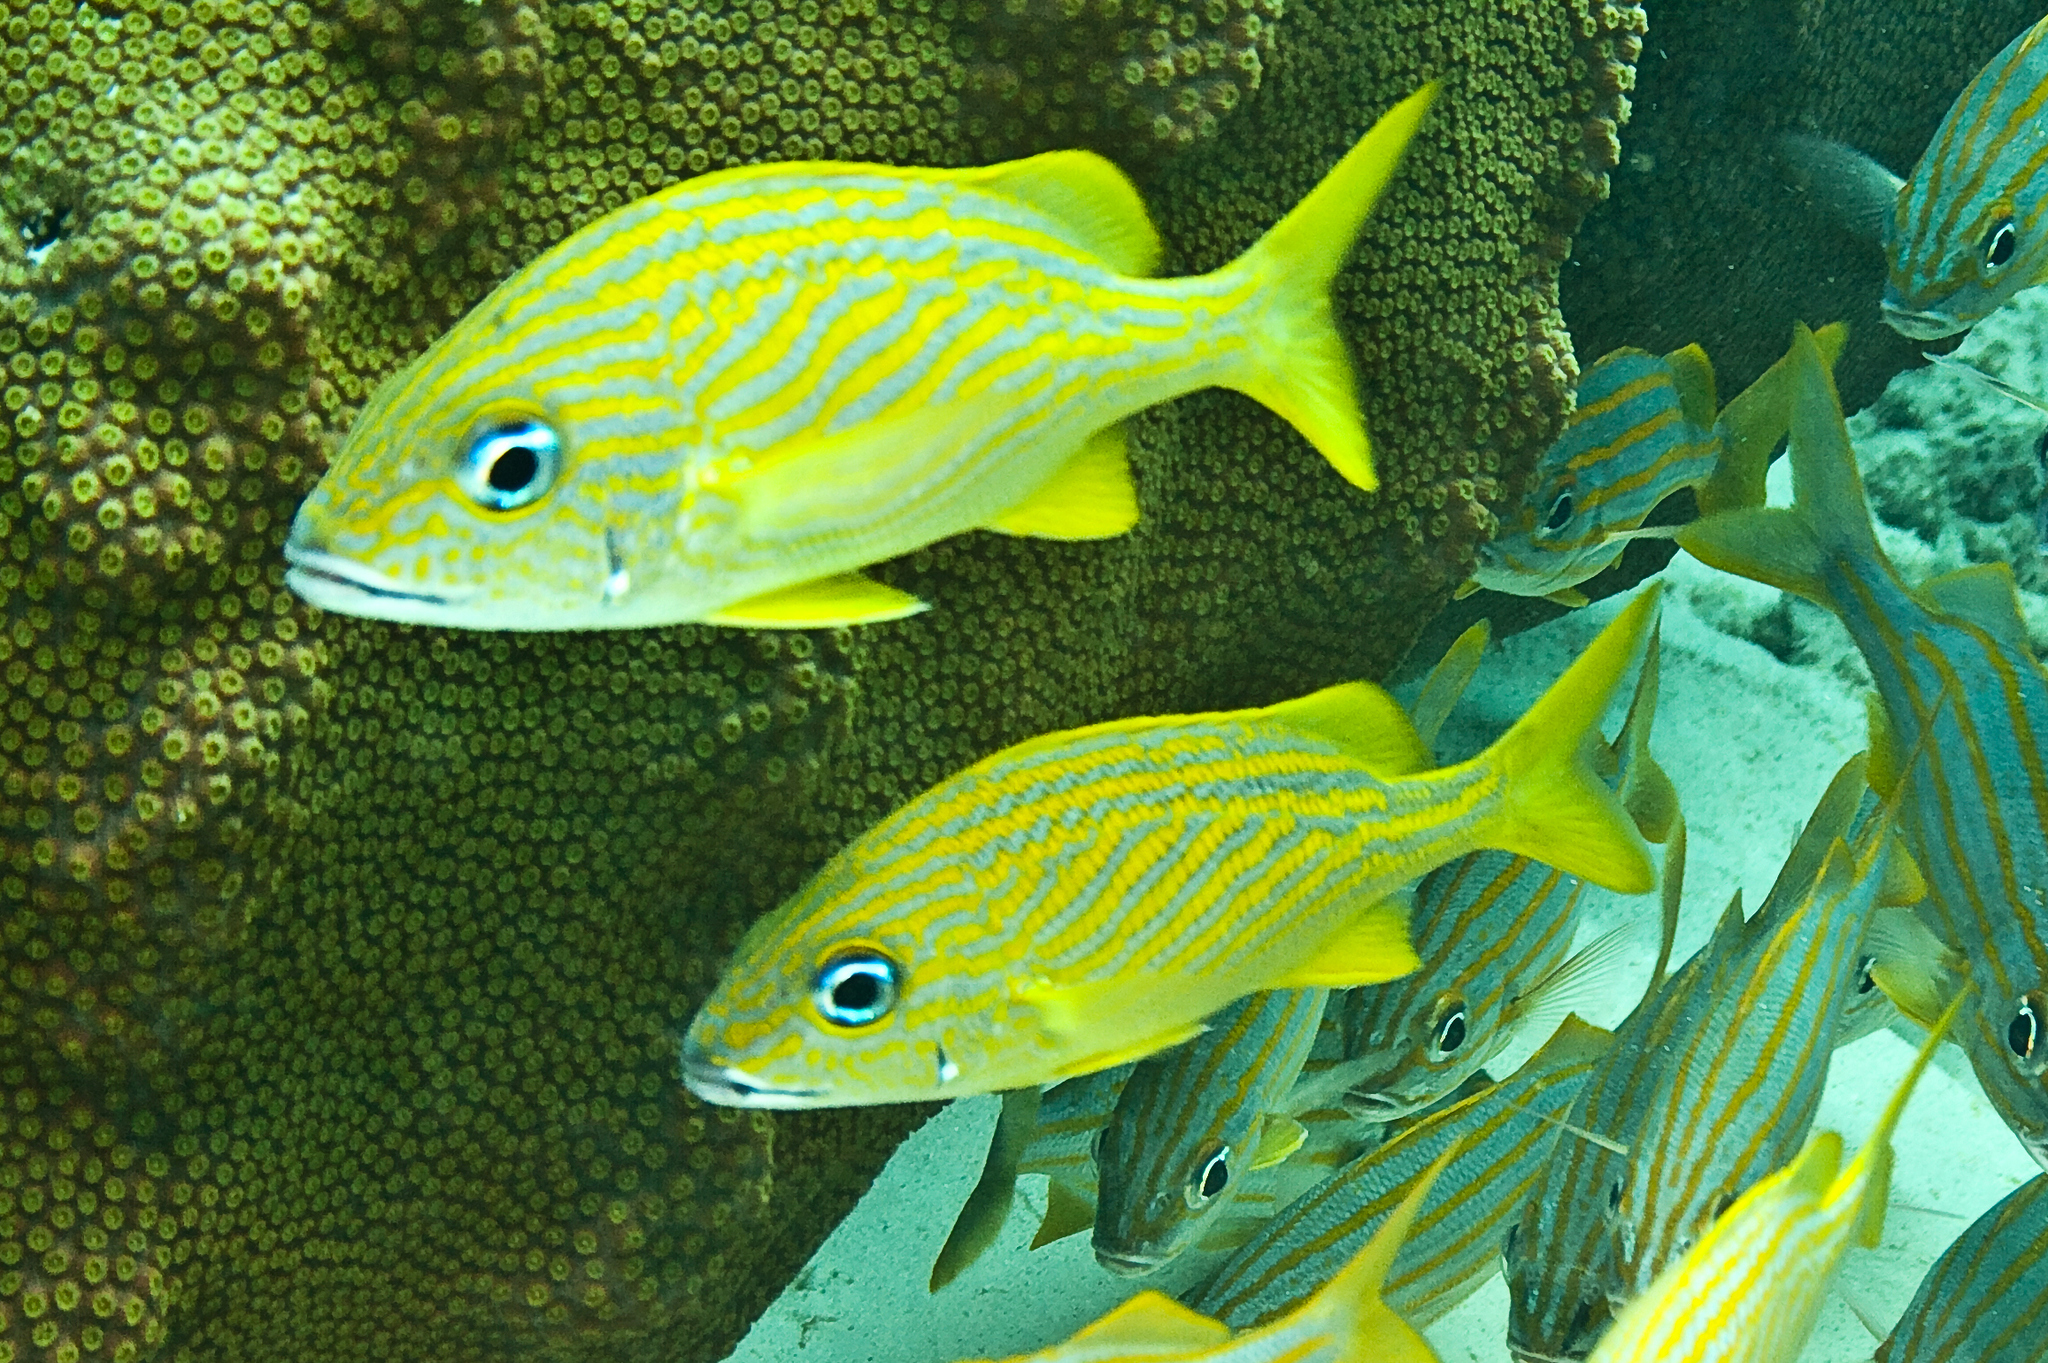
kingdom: Animalia
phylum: Chordata
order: Perciformes
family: Haemulidae
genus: Haemulon
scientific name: Haemulon flavolineatum
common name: French grunt
